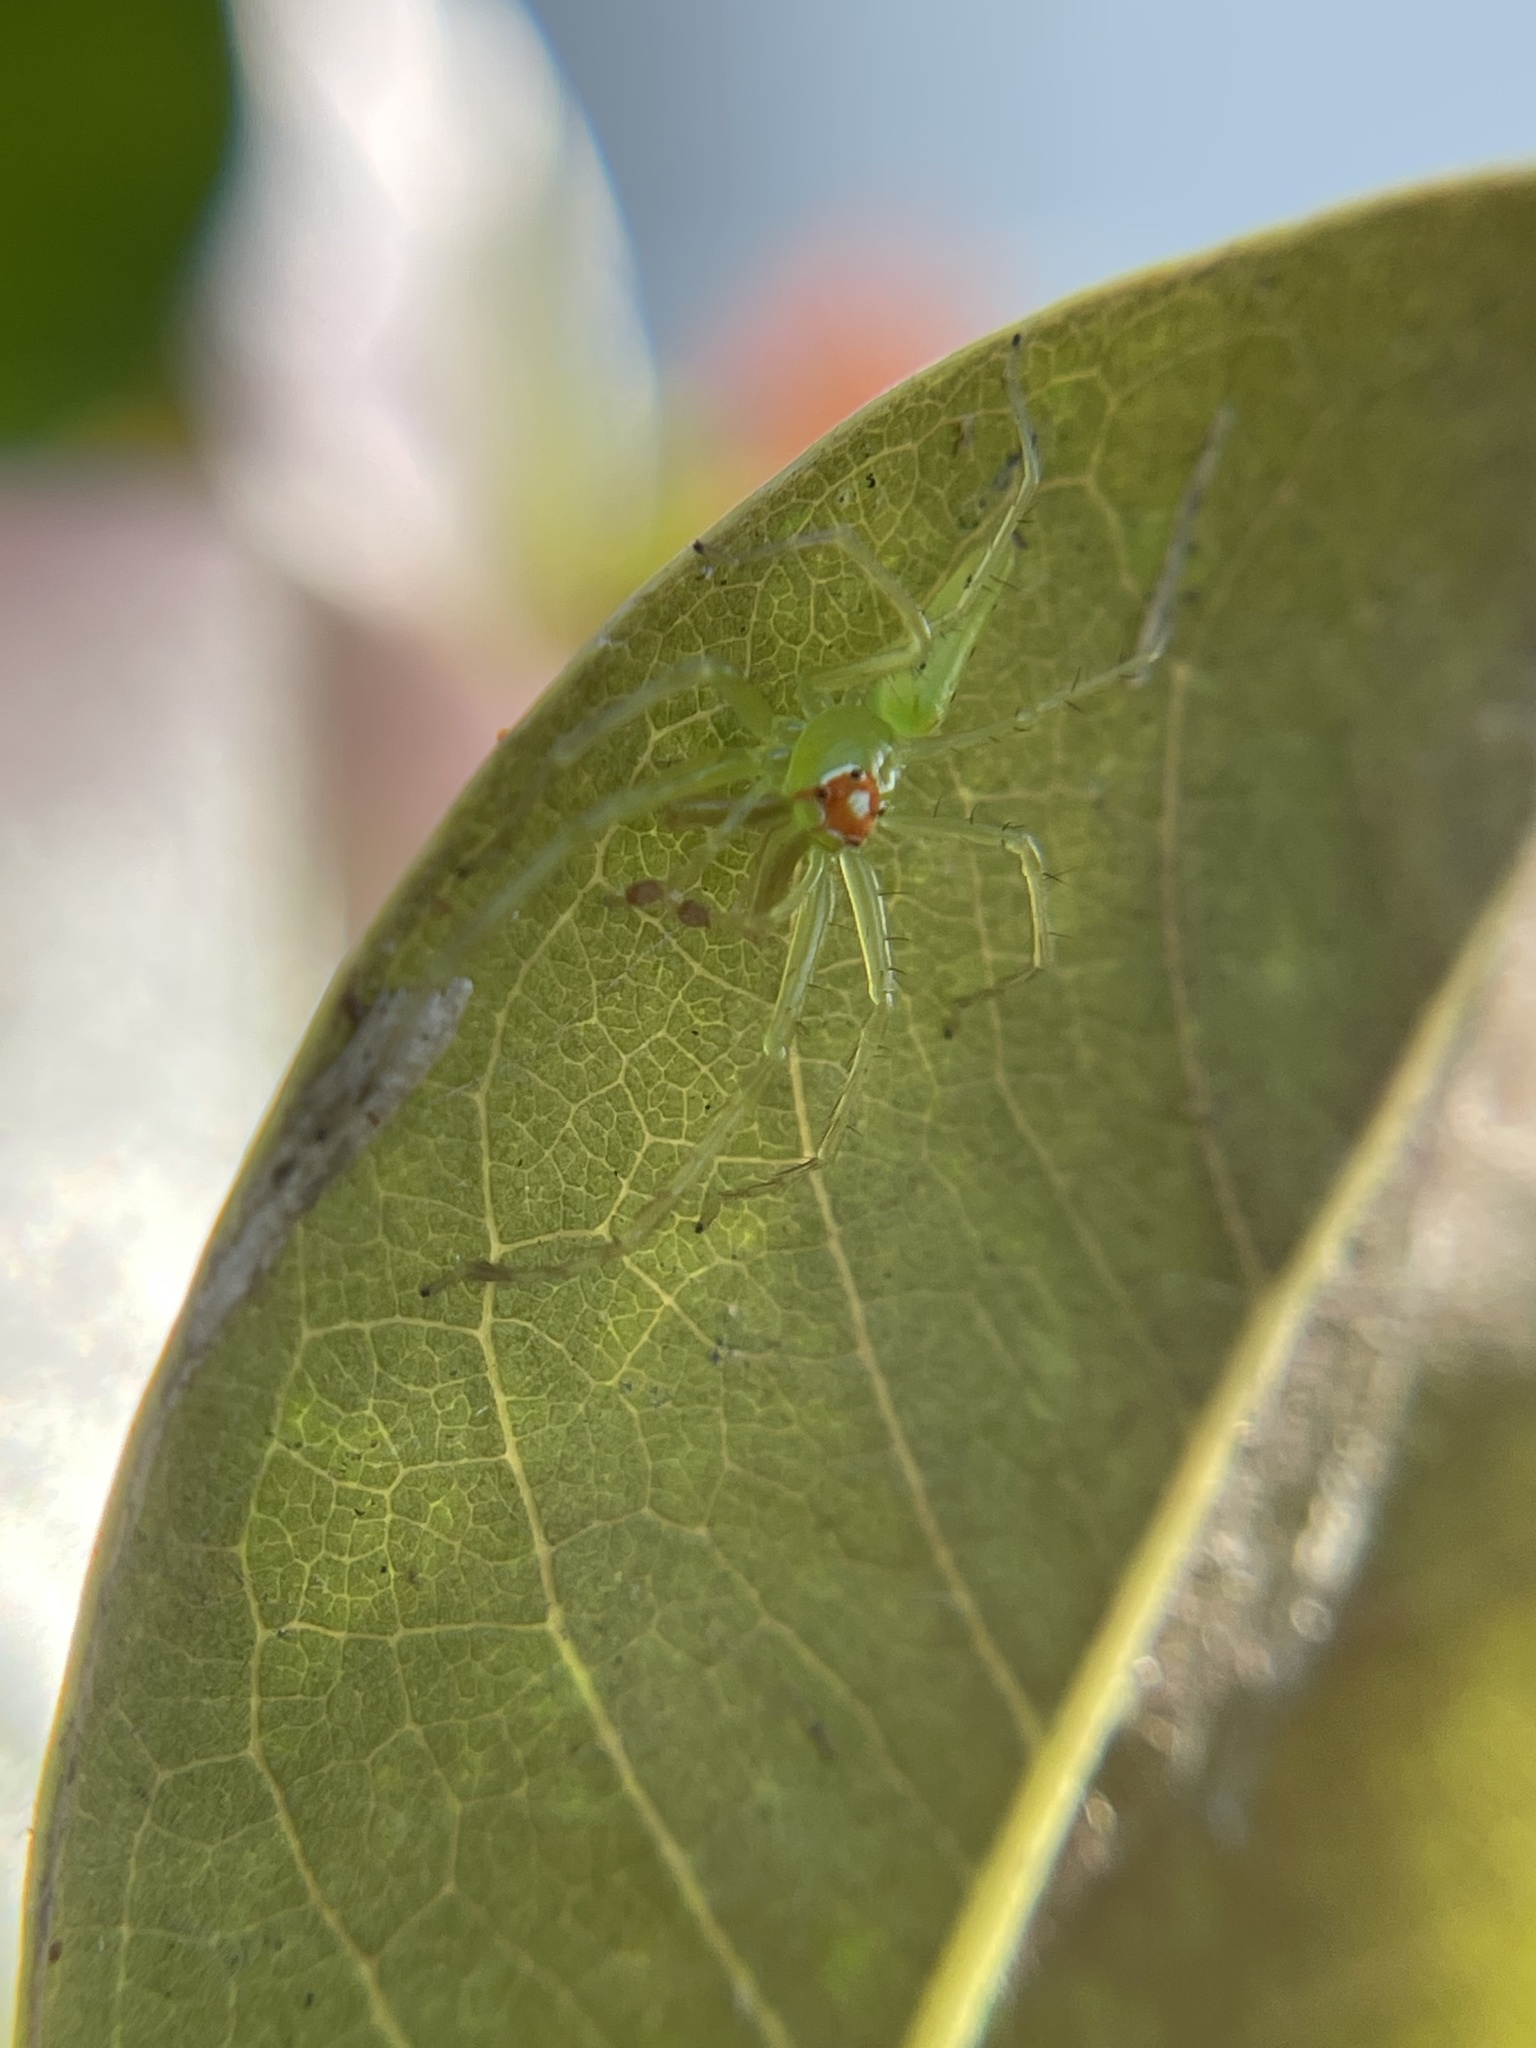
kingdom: Animalia
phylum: Arthropoda
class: Arachnida
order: Araneae
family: Salticidae
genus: Lyssomanes
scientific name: Lyssomanes viridis
